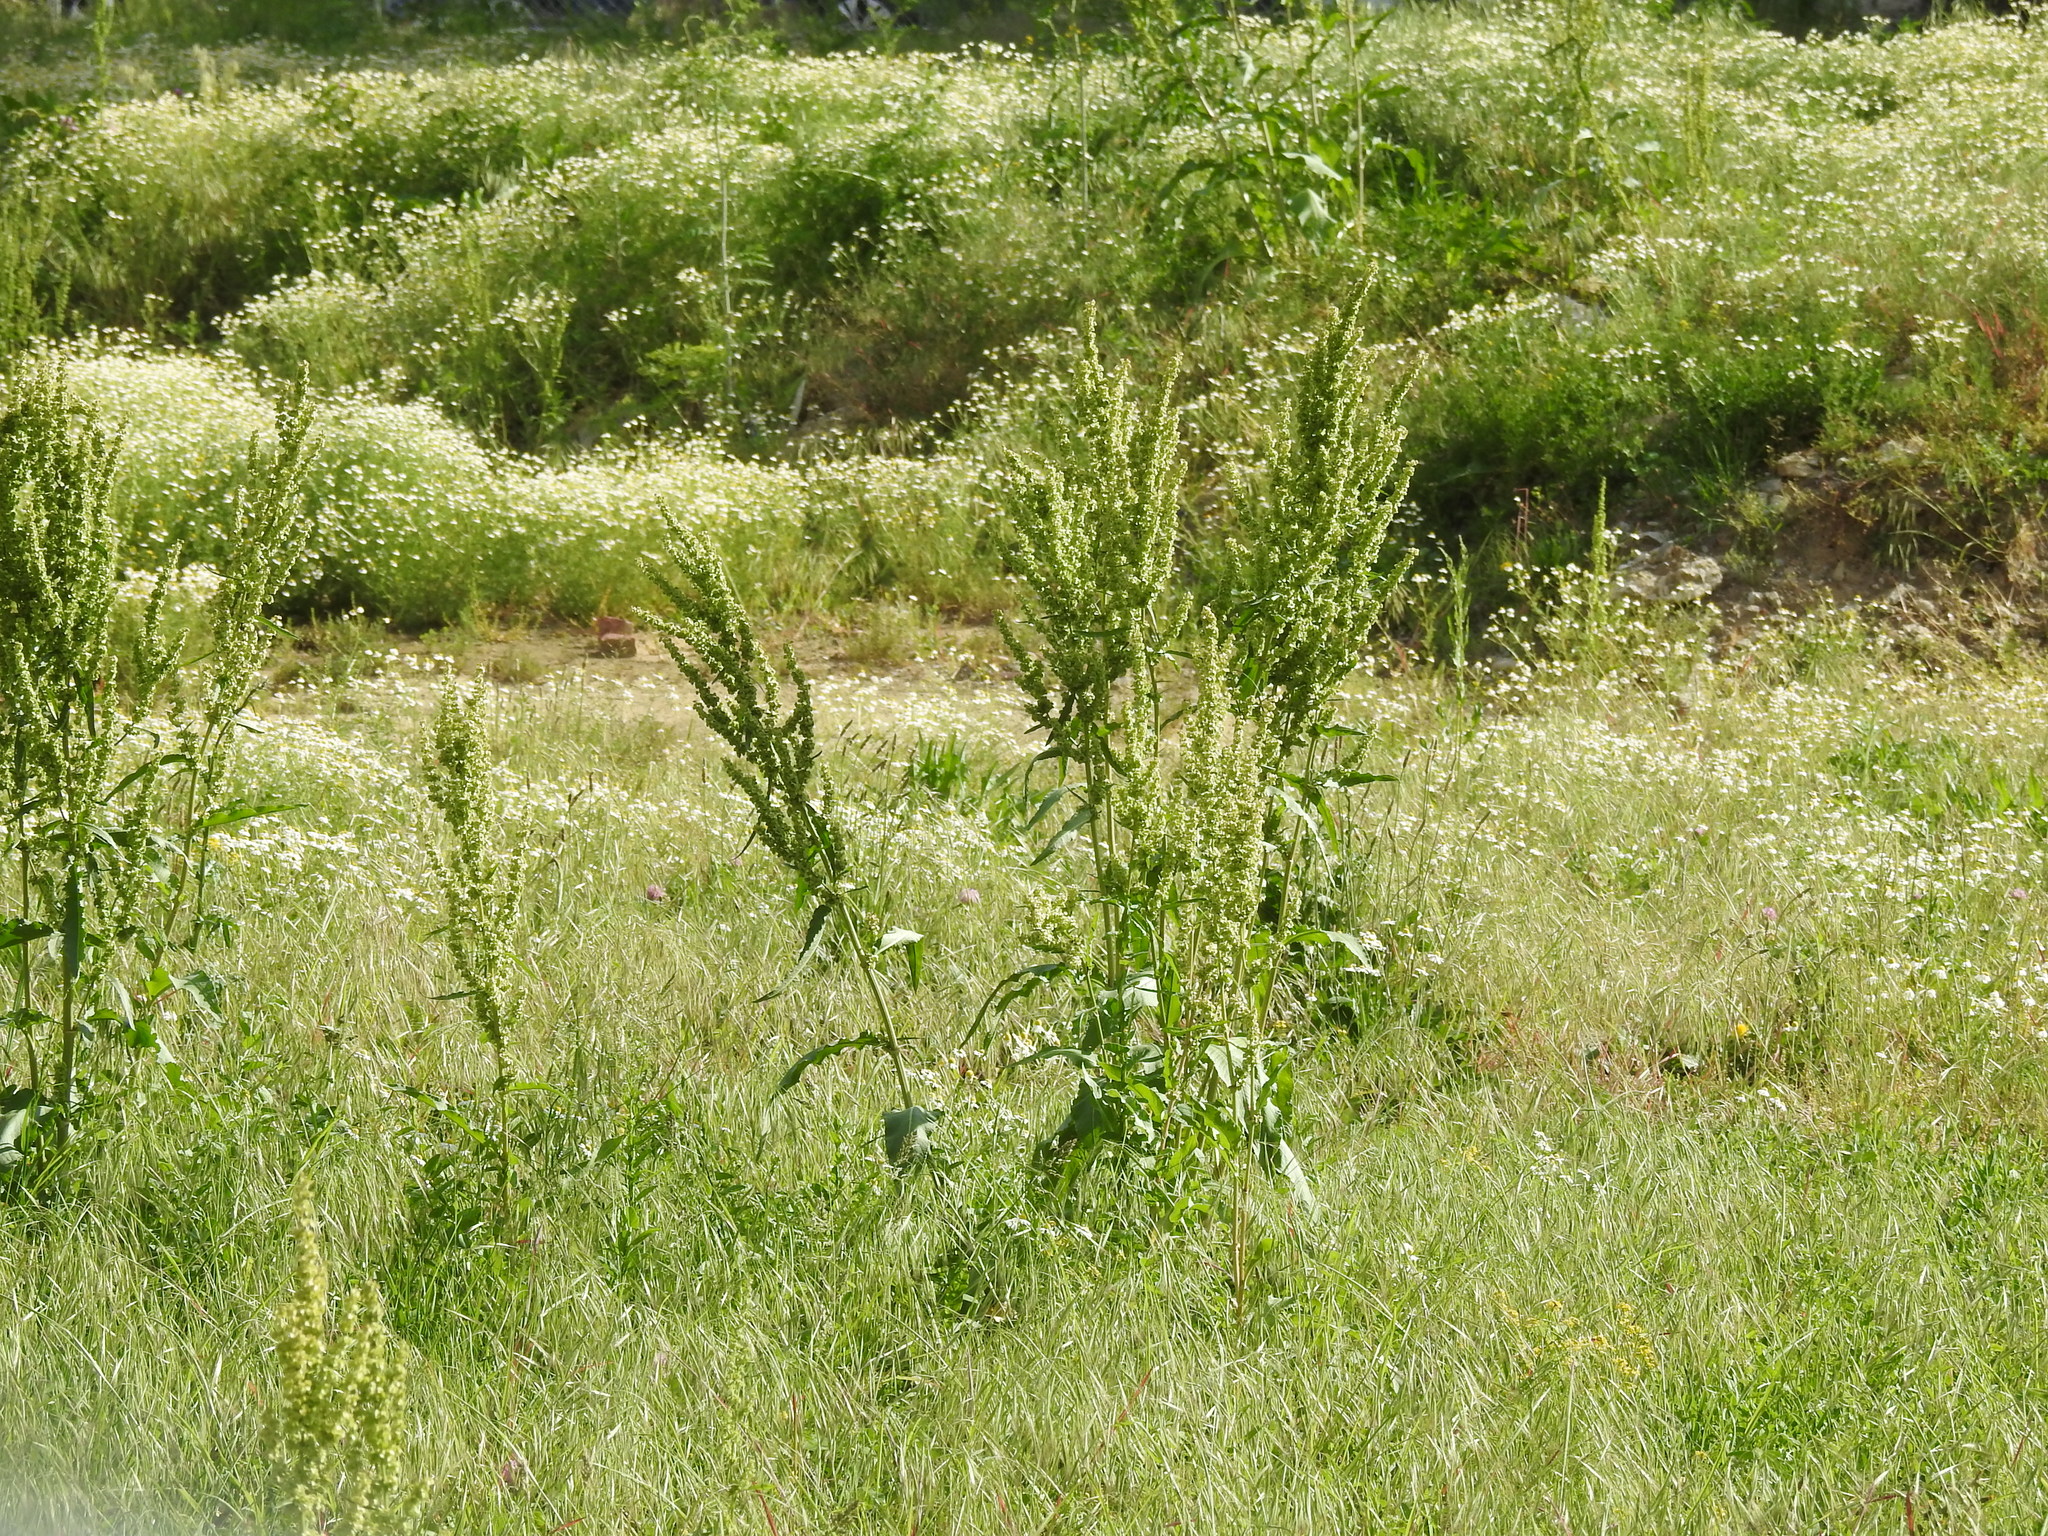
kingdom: Plantae
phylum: Tracheophyta
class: Magnoliopsida
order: Caryophyllales
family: Polygonaceae
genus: Rumex
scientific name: Rumex crispus
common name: Curled dock
